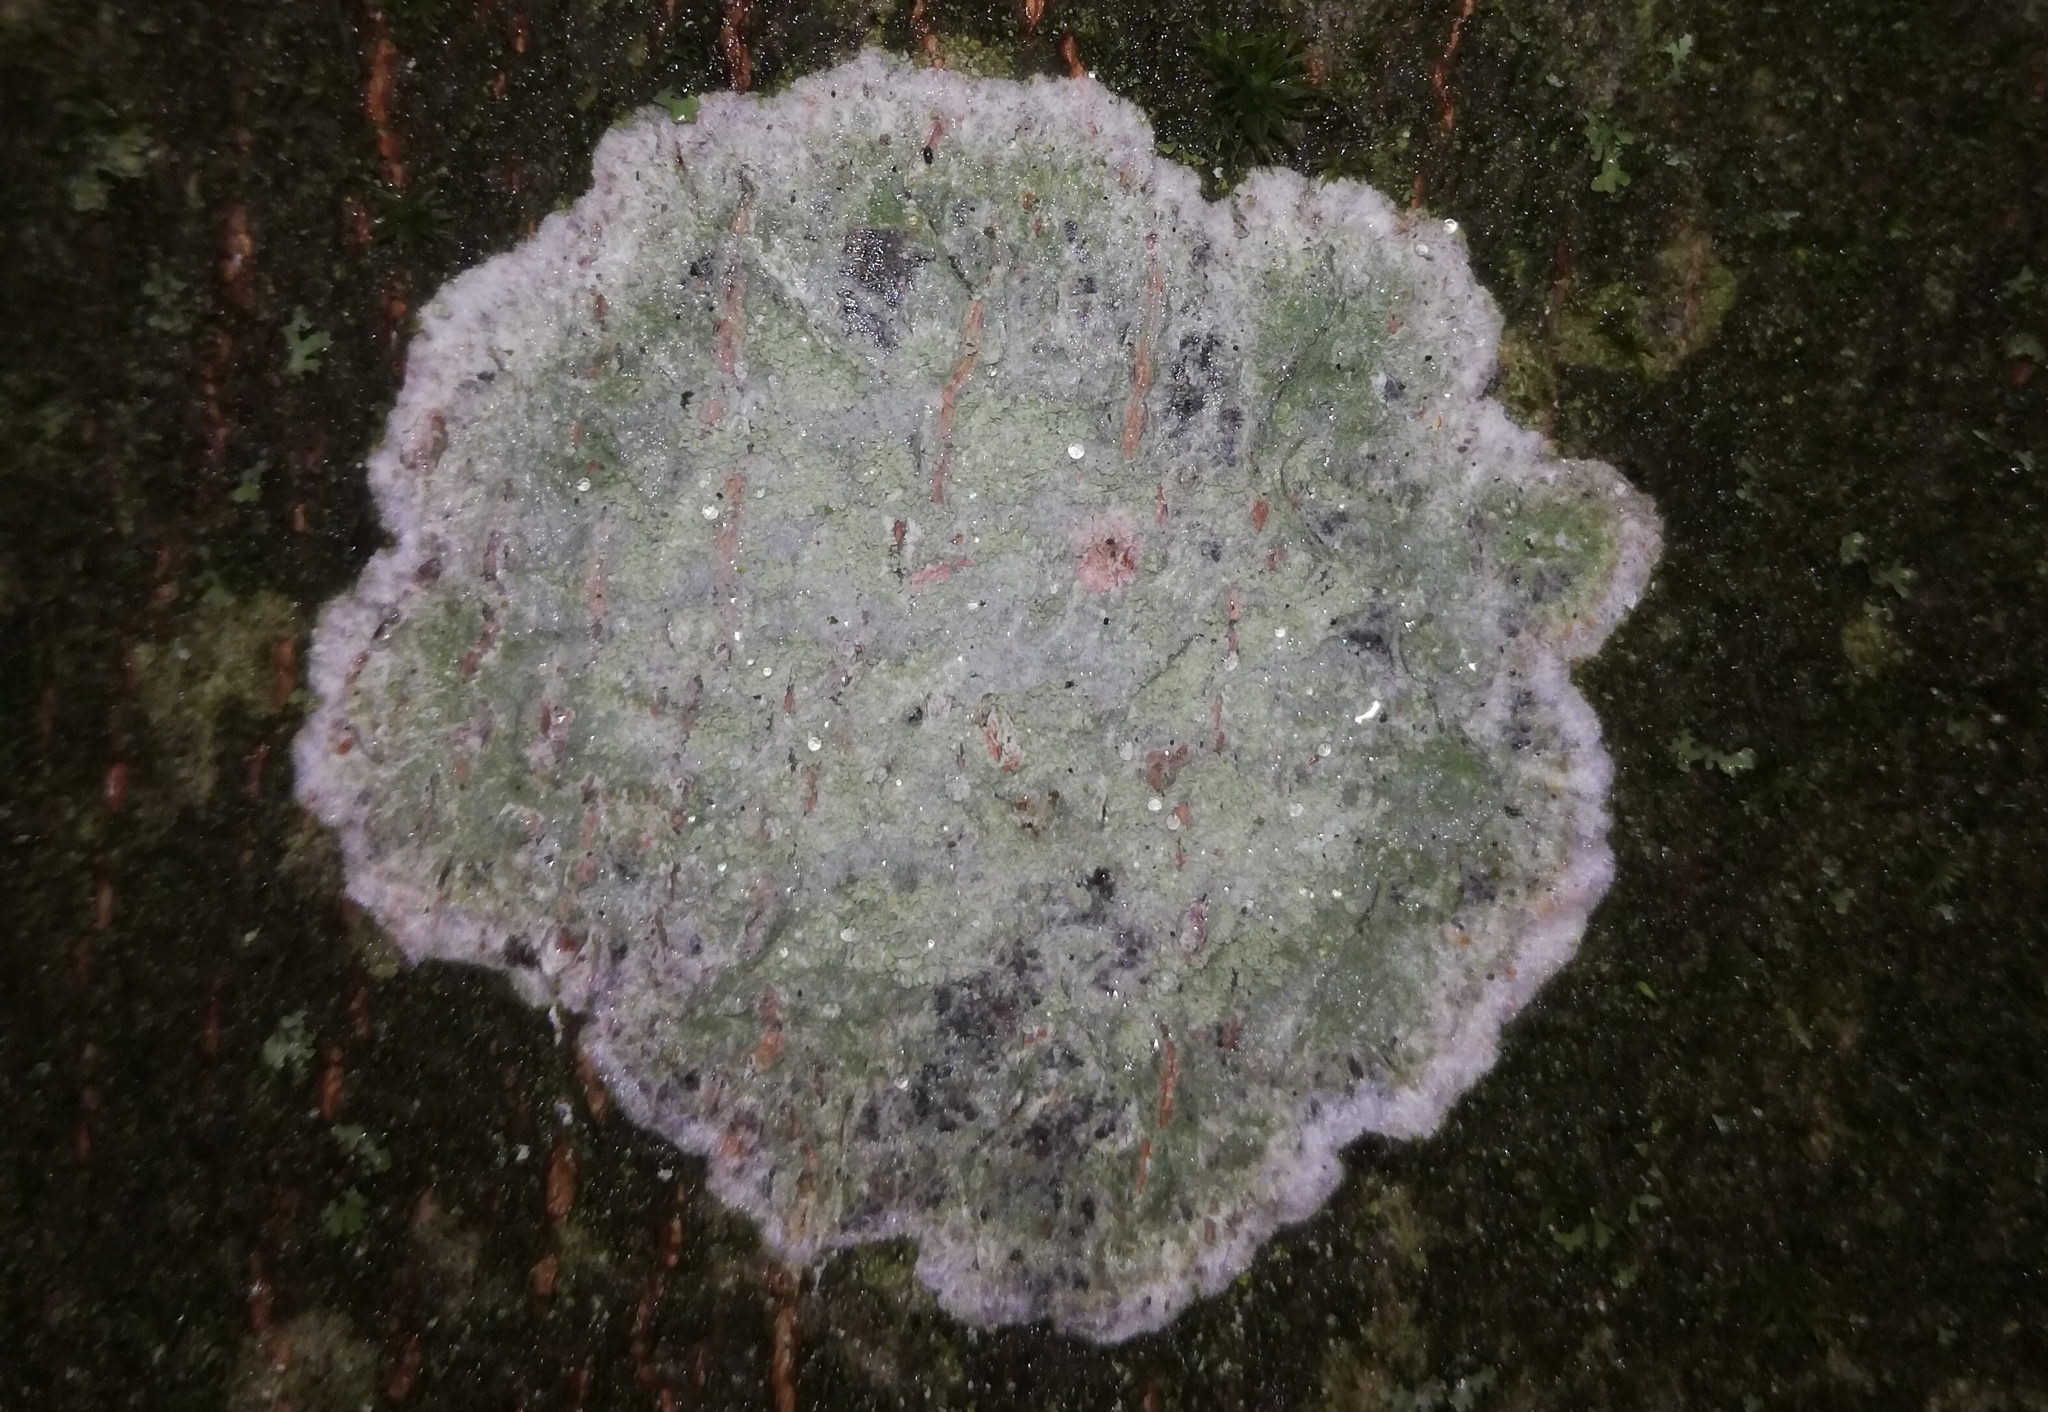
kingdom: Fungi
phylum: Ascomycota
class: Lecanoromycetes
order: Ostropales
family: Phlyctidaceae
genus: Phlyctis
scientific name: Phlyctis argena
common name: Whitewash lichen
